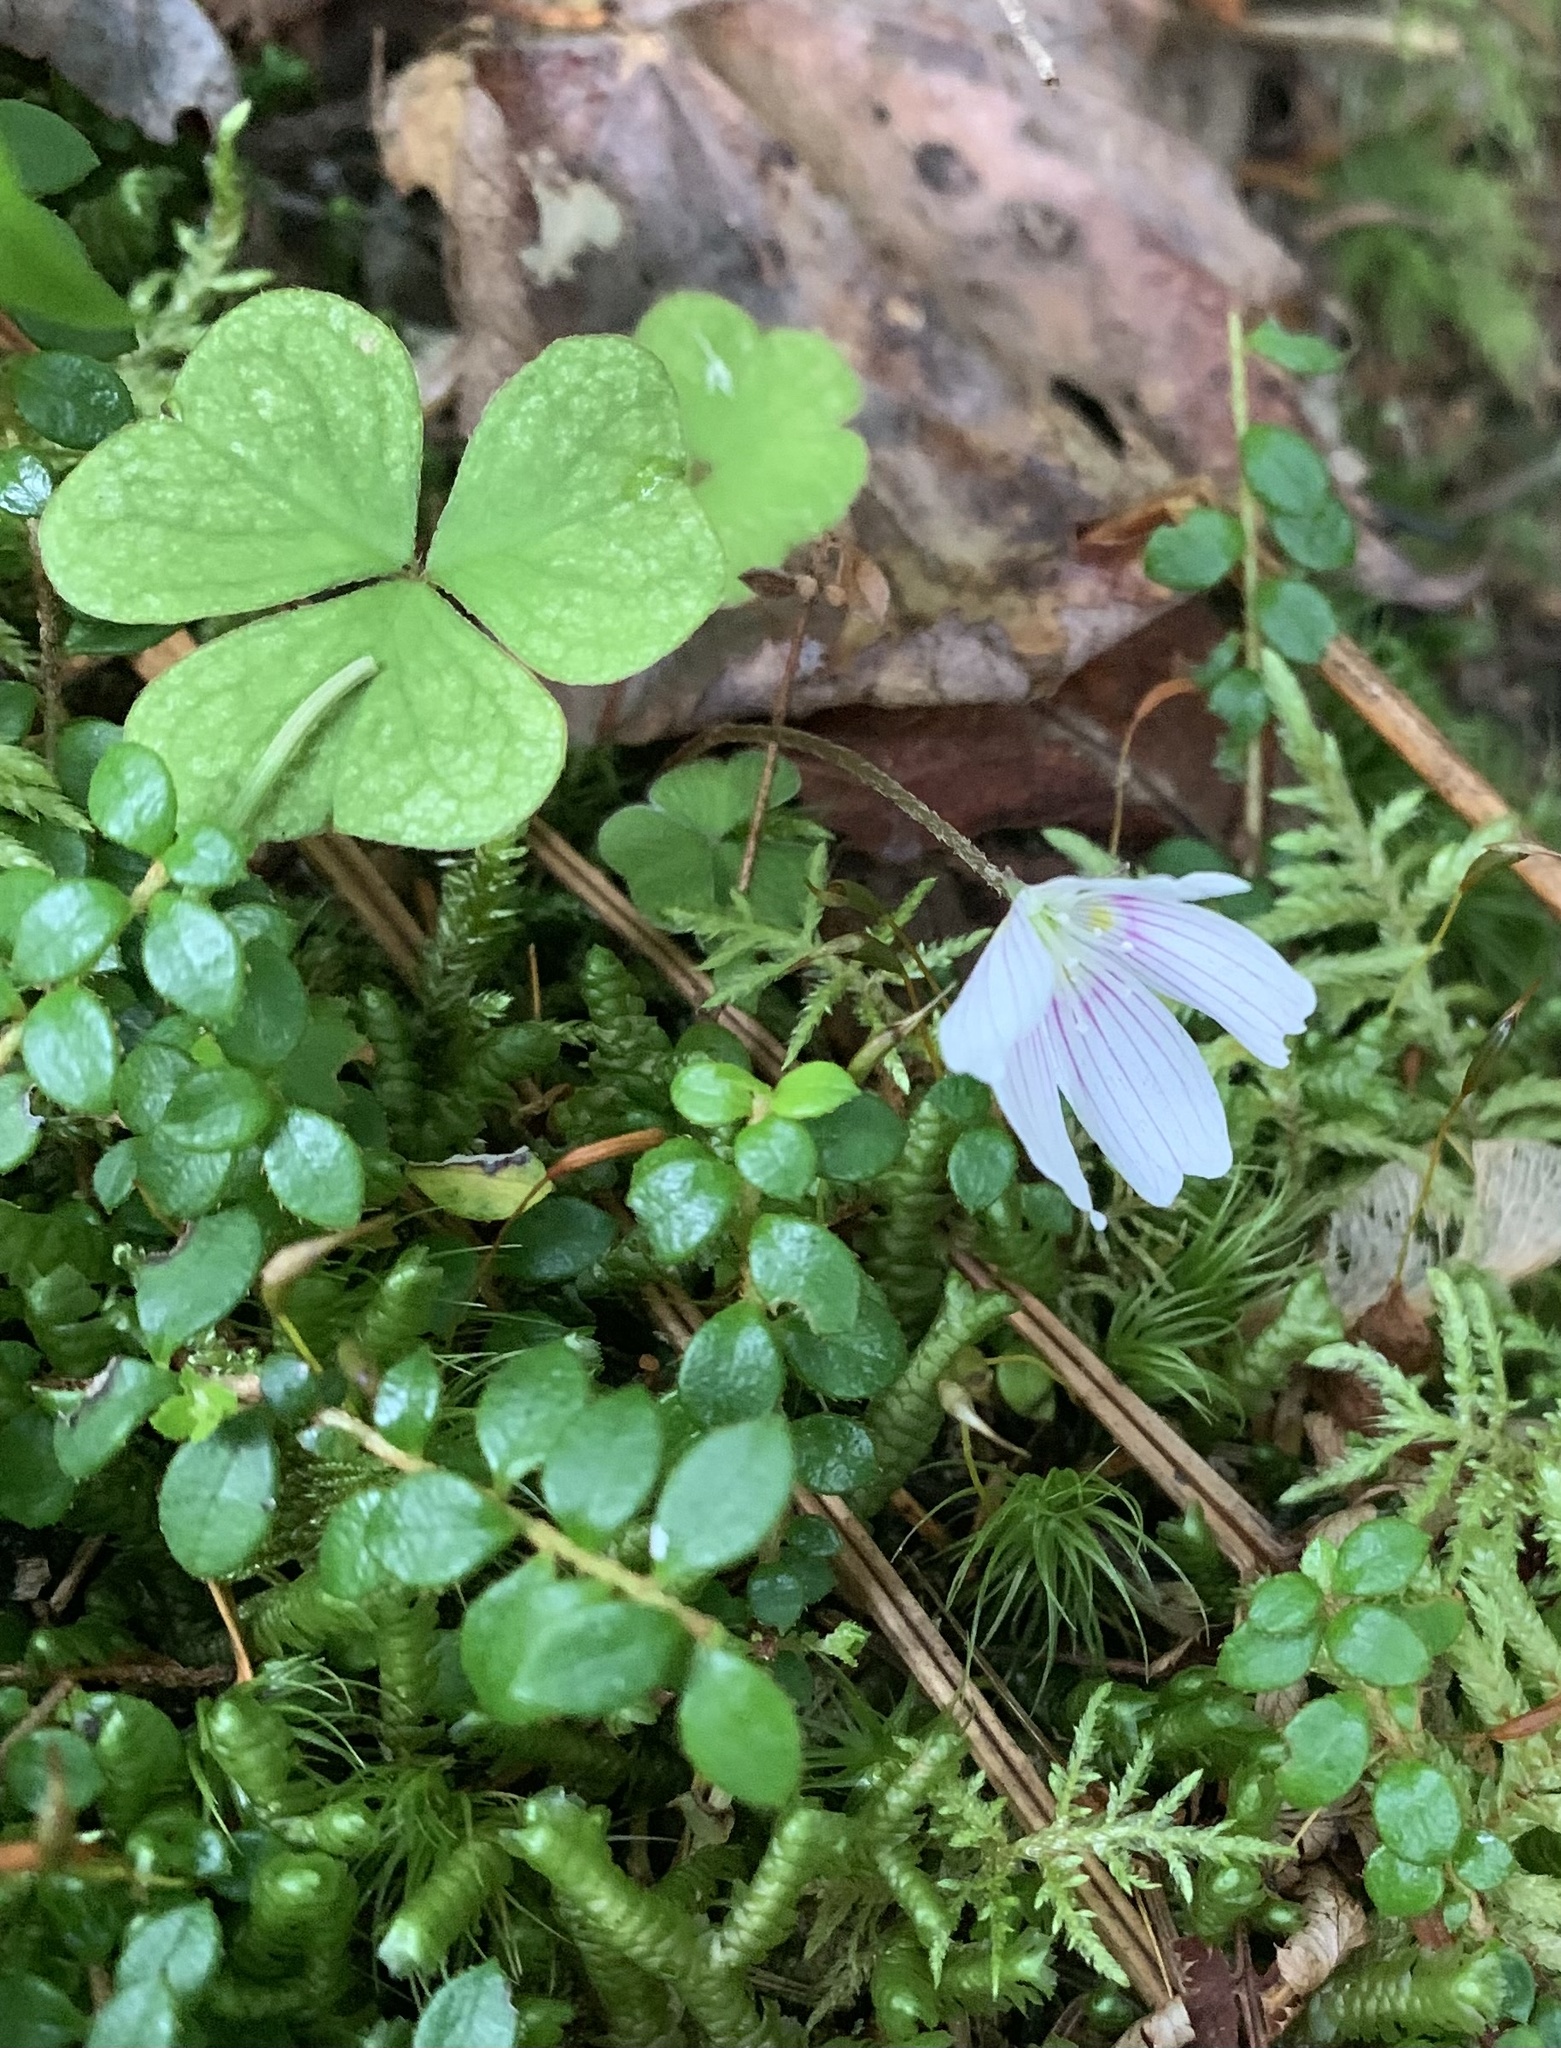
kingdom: Plantae
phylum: Tracheophyta
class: Magnoliopsida
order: Oxalidales
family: Oxalidaceae
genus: Oxalis
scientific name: Oxalis montana
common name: American wood-sorrel
